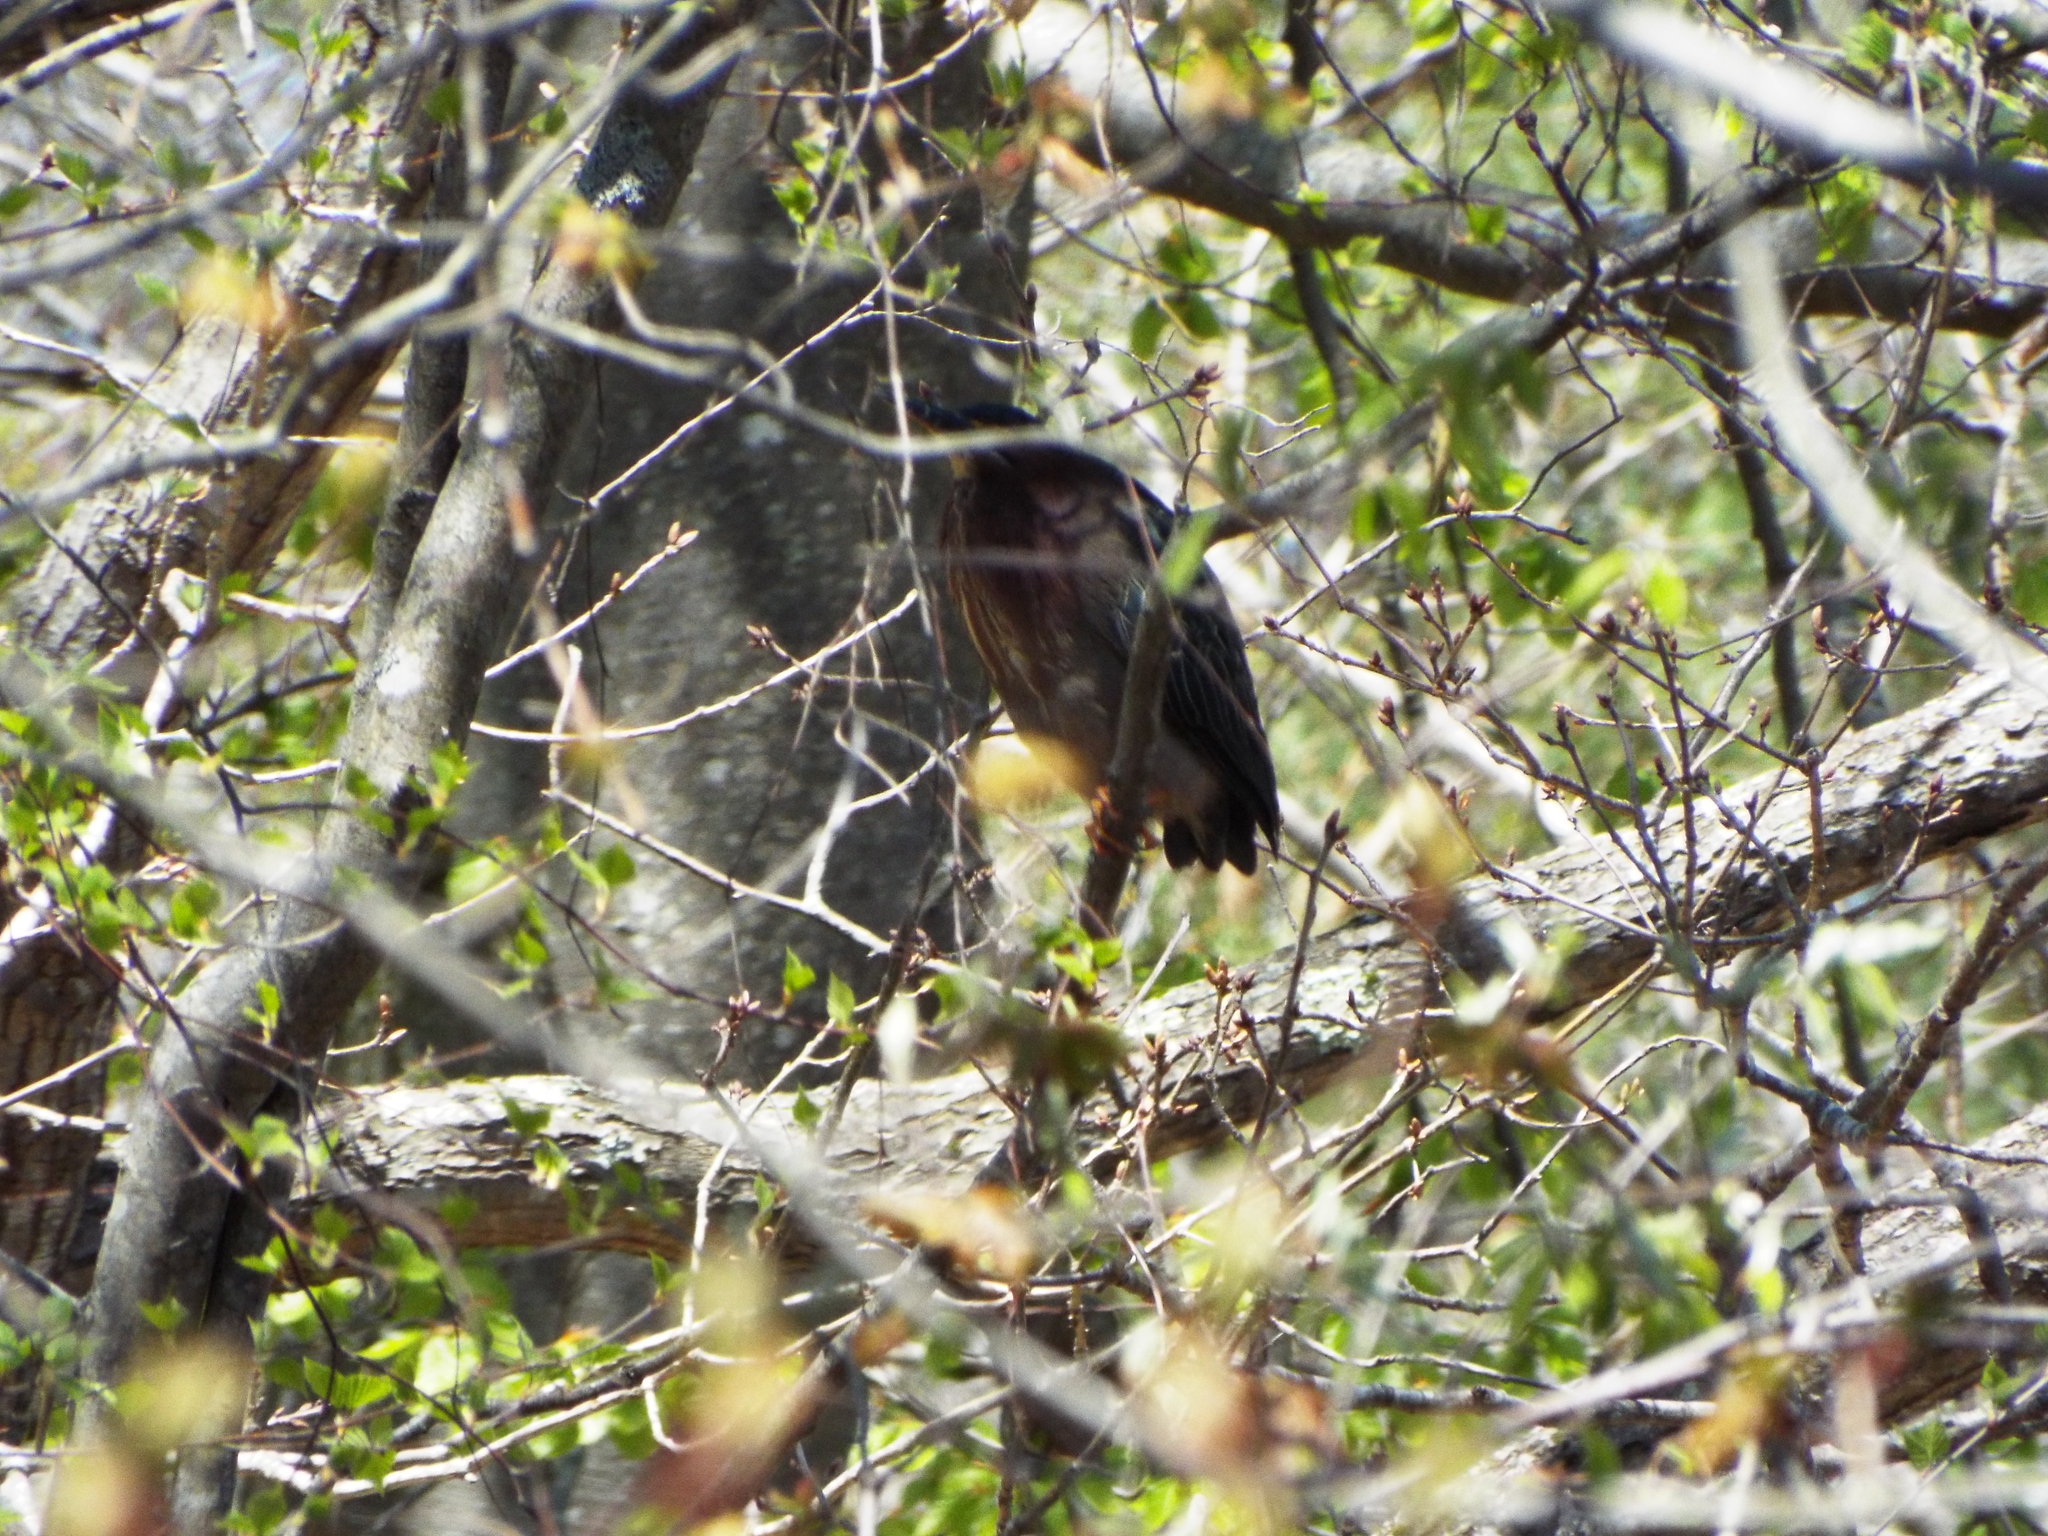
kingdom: Animalia
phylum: Chordata
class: Aves
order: Pelecaniformes
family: Ardeidae
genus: Butorides
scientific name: Butorides virescens
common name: Green heron
